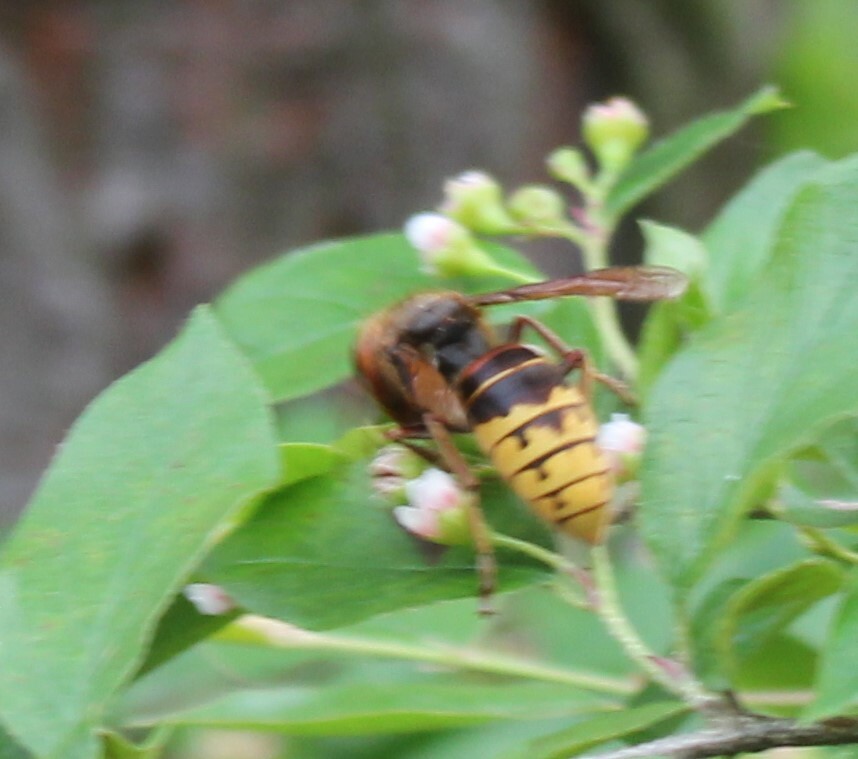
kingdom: Animalia
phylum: Arthropoda
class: Insecta
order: Hymenoptera
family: Vespidae
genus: Vespa
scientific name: Vespa crabro
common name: Hornet
